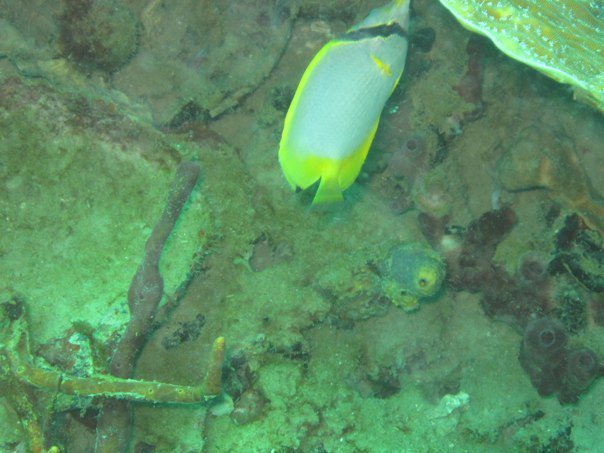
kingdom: Animalia
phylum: Chordata
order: Perciformes
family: Chaetodontidae
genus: Chaetodon
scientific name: Chaetodon ocellatus
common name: Spotfin butterflyfish
